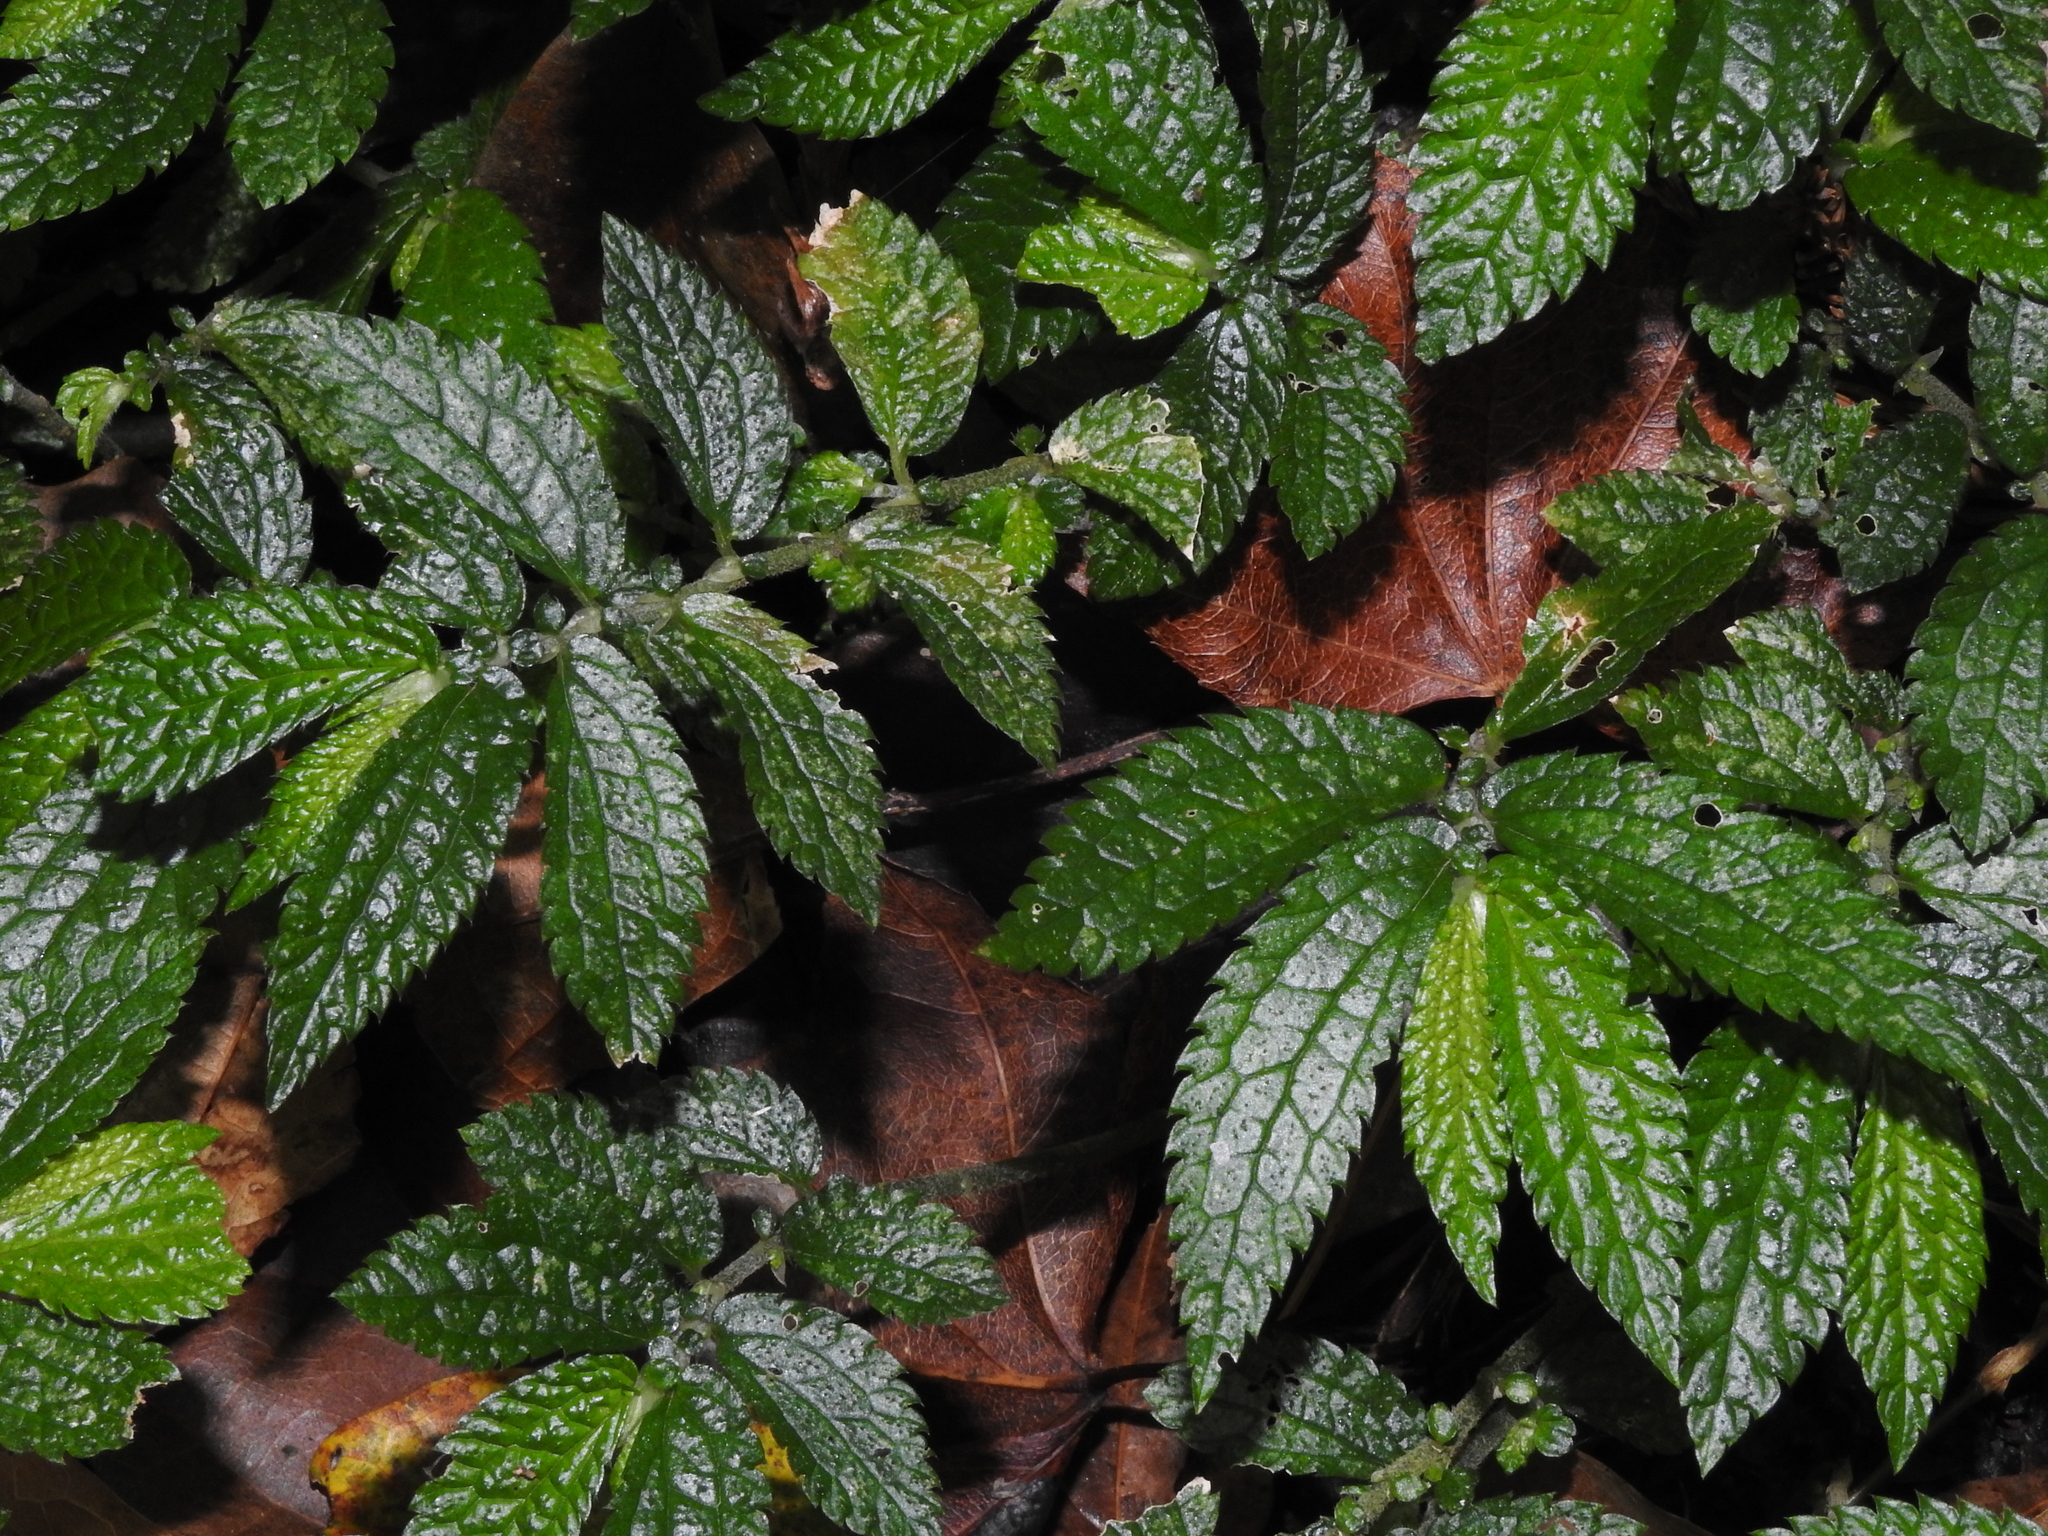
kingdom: Plantae
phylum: Tracheophyta
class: Magnoliopsida
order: Rosales
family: Urticaceae
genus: Elatostema
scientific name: Elatostema parvum
